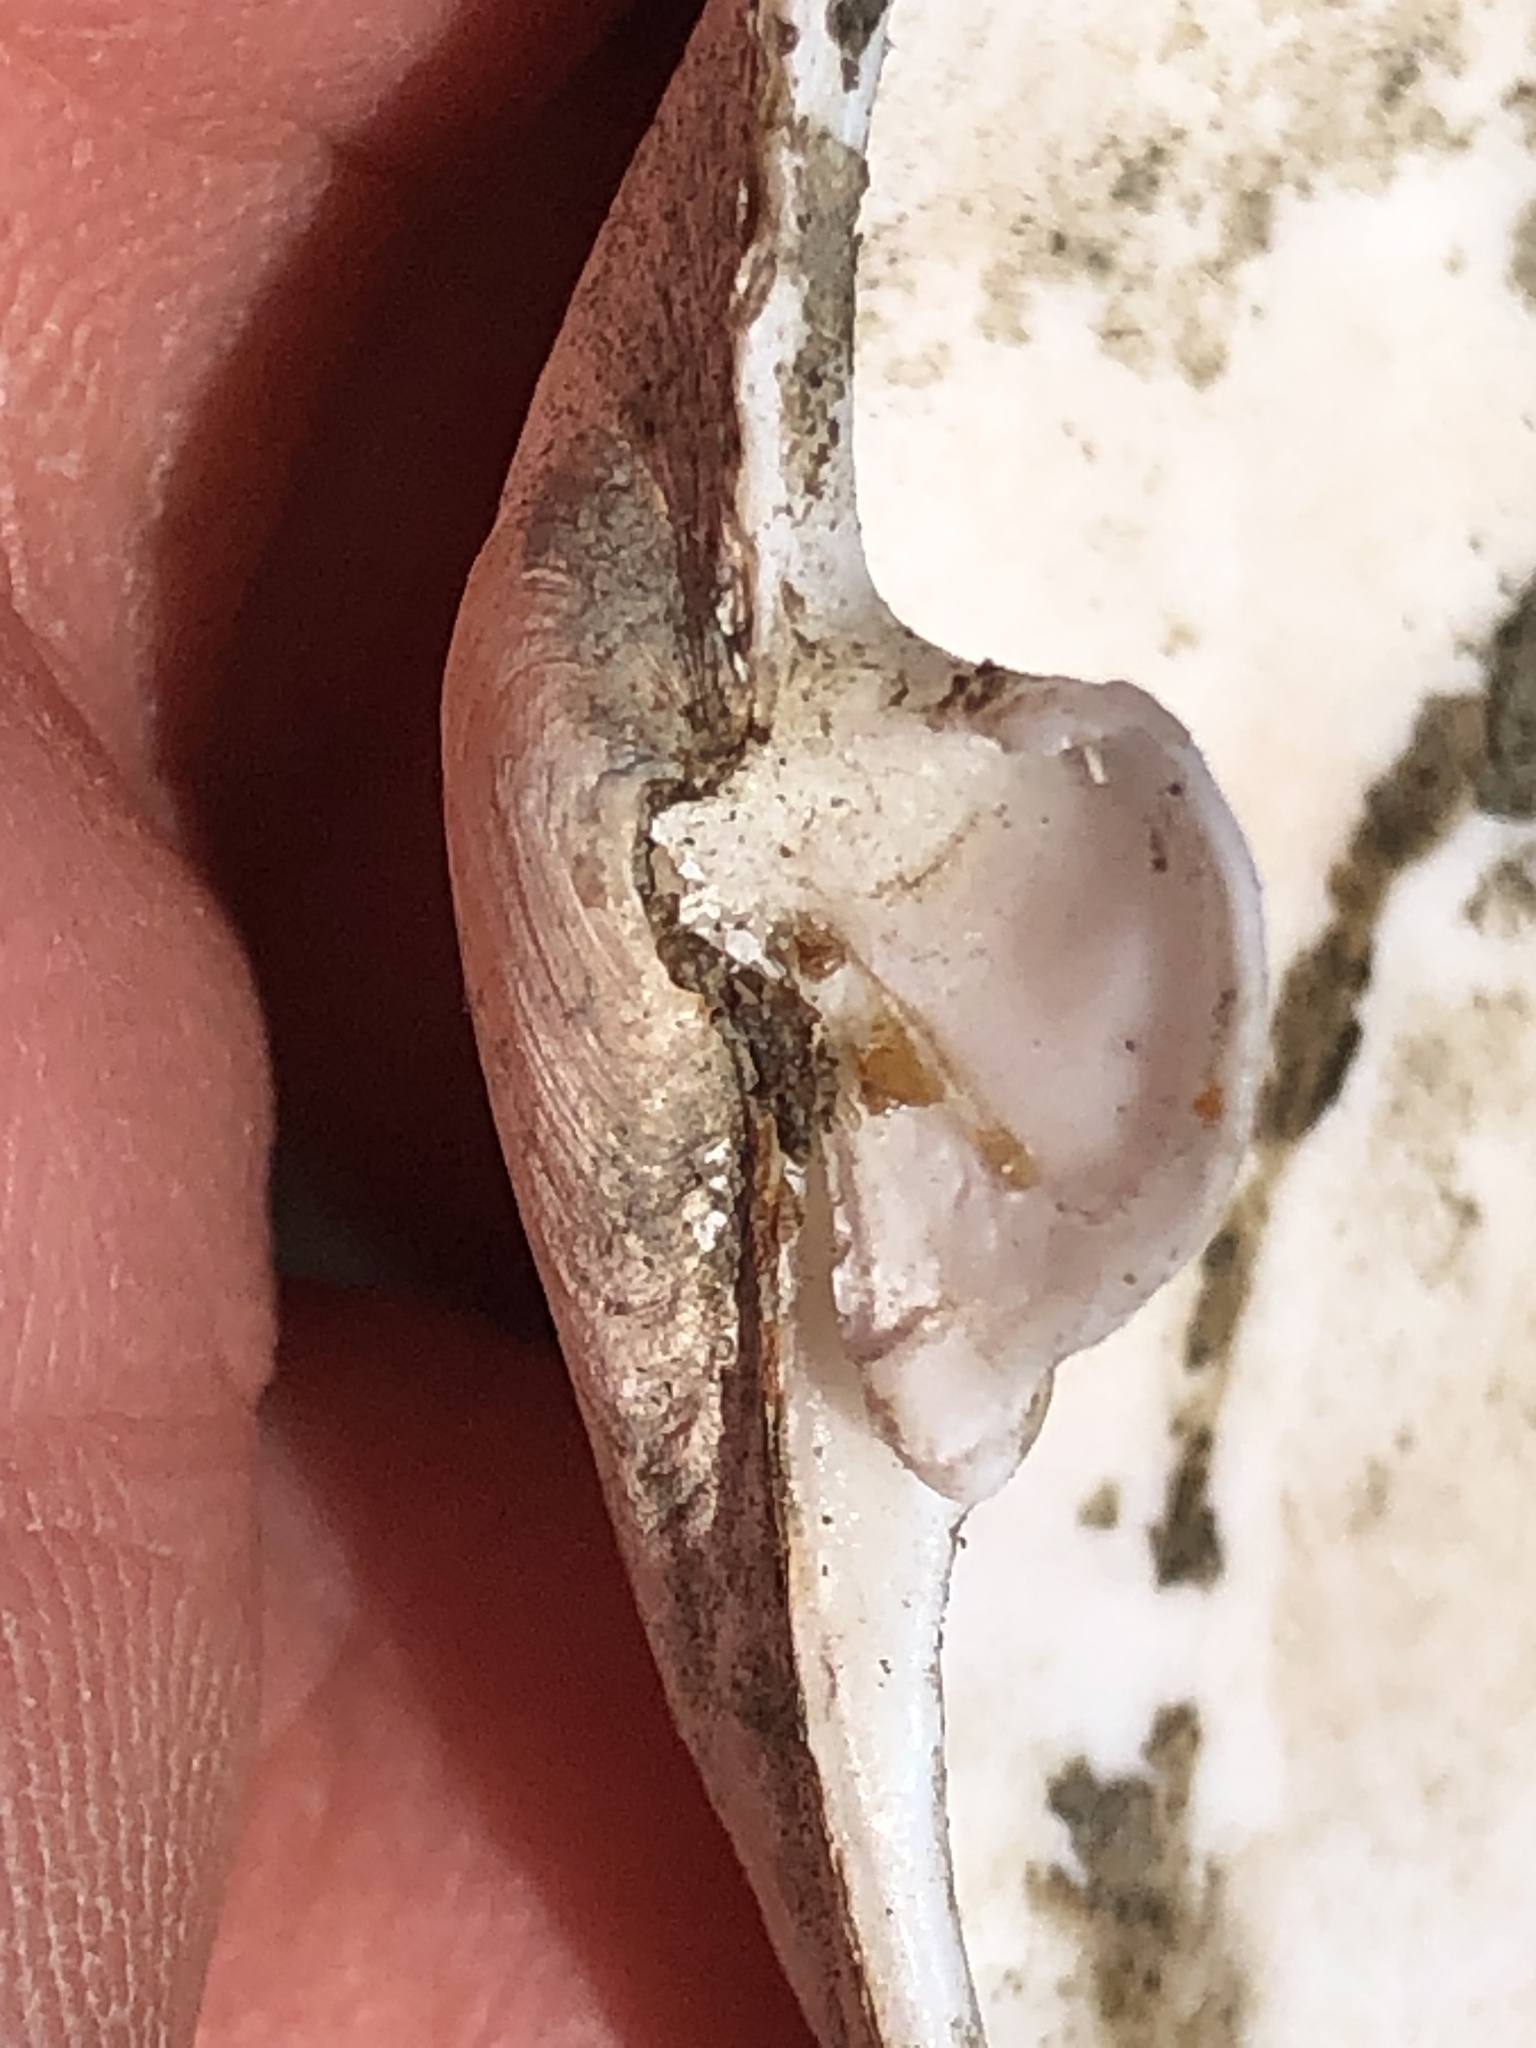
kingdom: Animalia
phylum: Mollusca
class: Bivalvia
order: Myida
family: Myidae
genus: Mya
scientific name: Mya arenaria
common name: Soft-shelled clam
